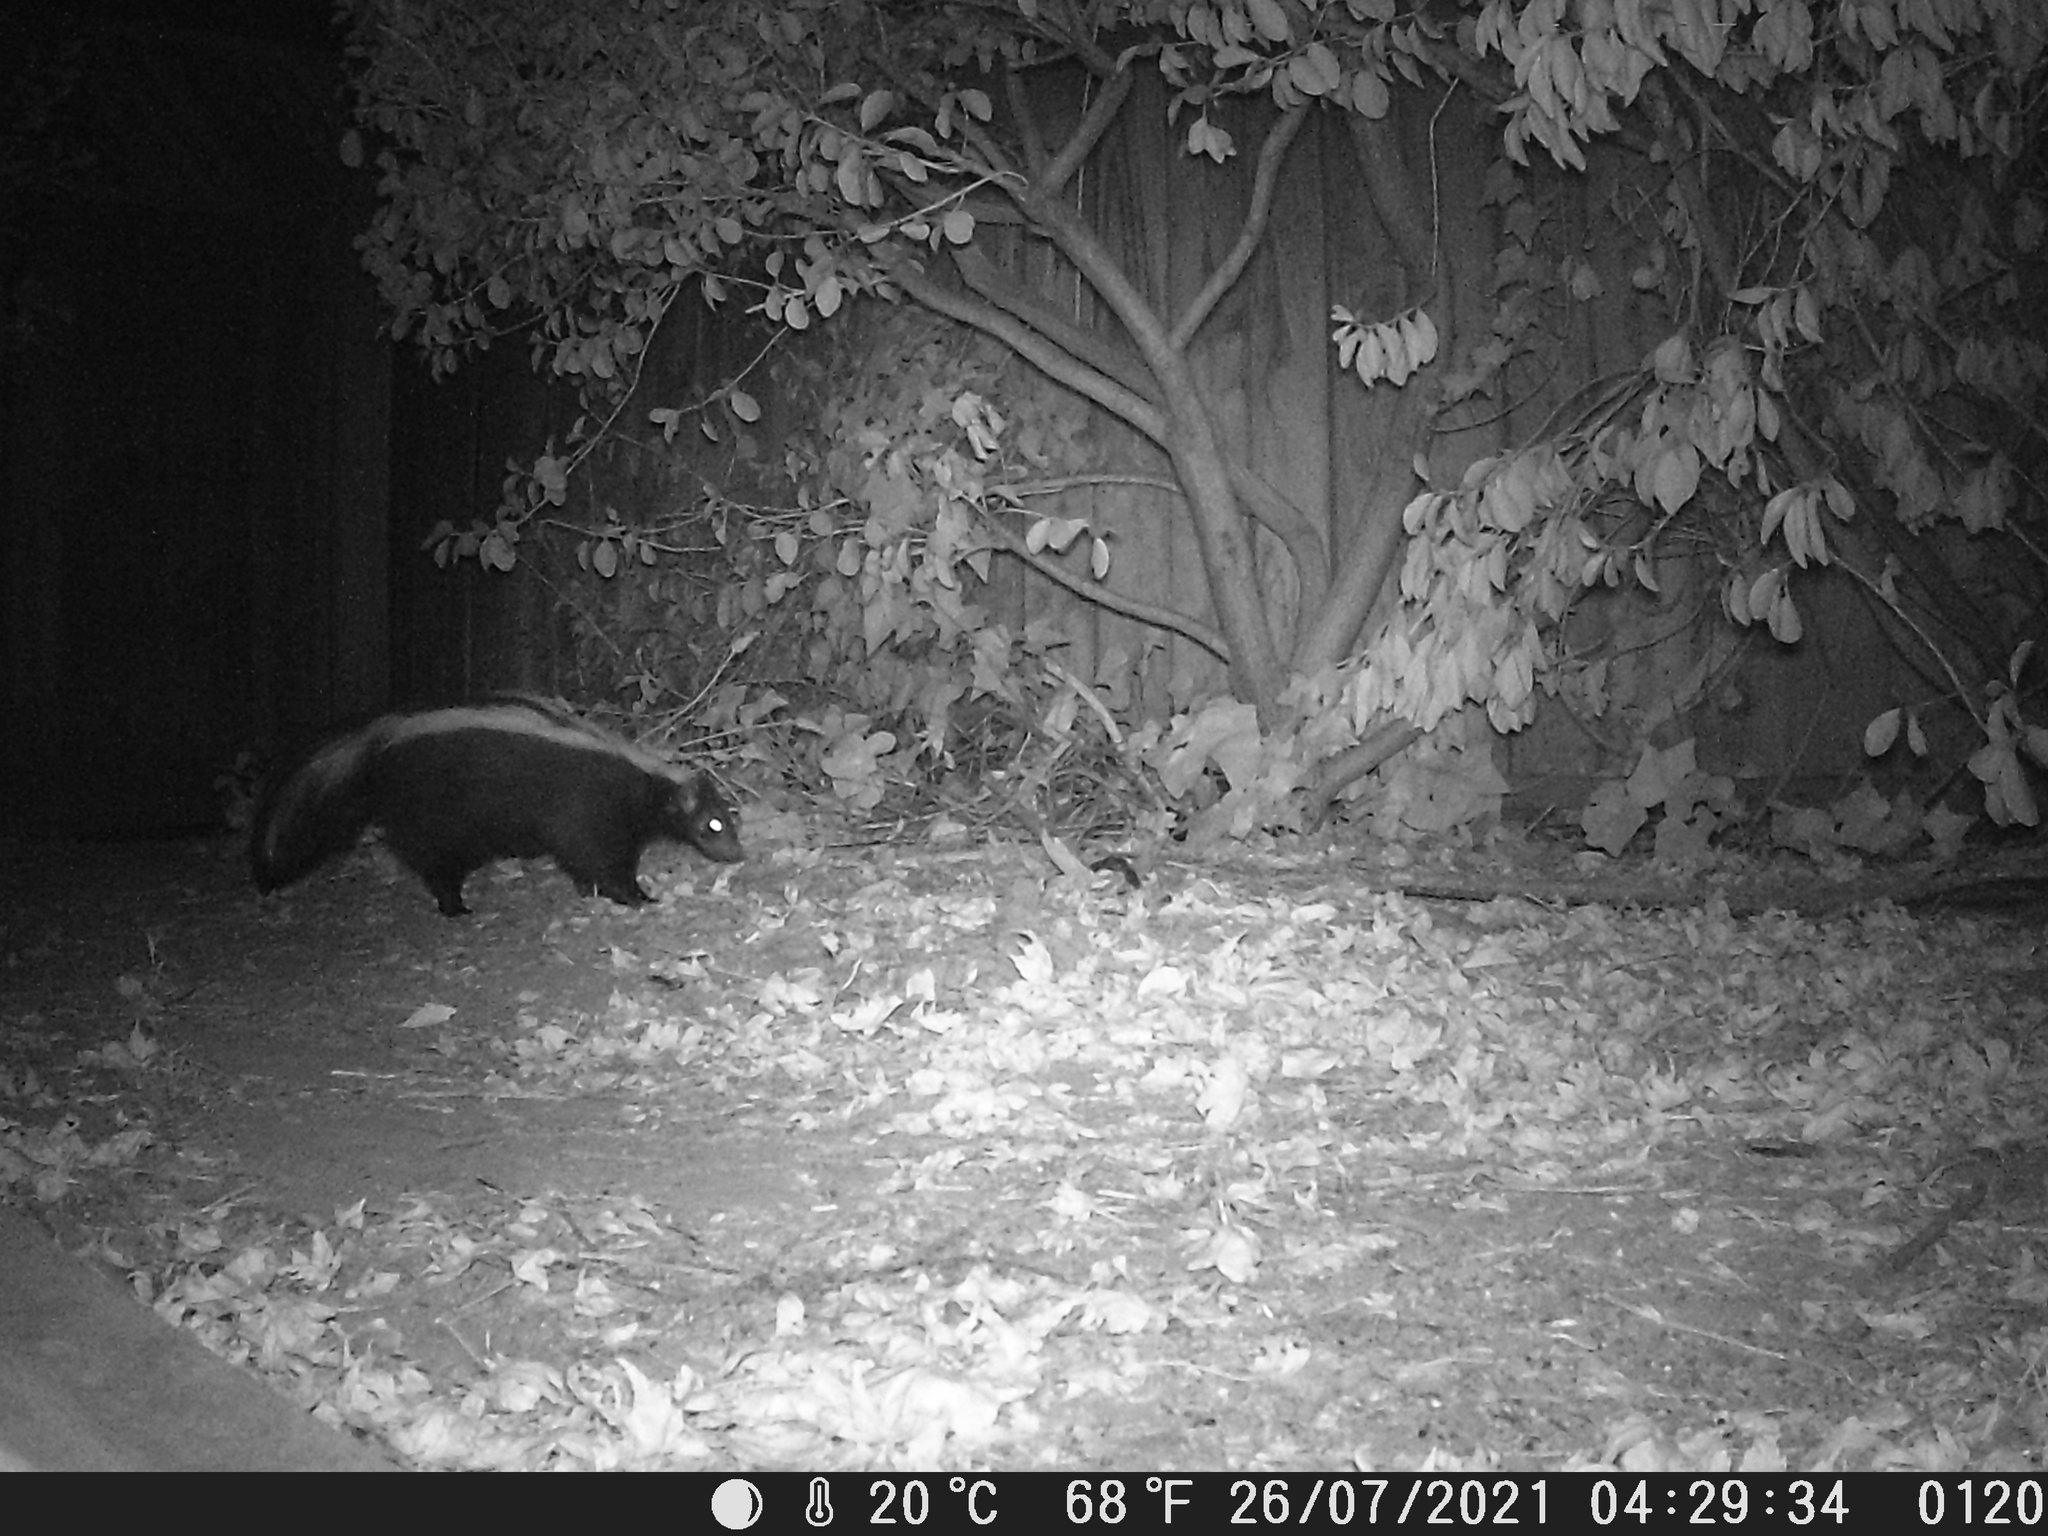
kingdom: Animalia
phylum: Chordata
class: Mammalia
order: Carnivora
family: Mephitidae
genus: Mephitis
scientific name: Mephitis mephitis
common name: Striped skunk
